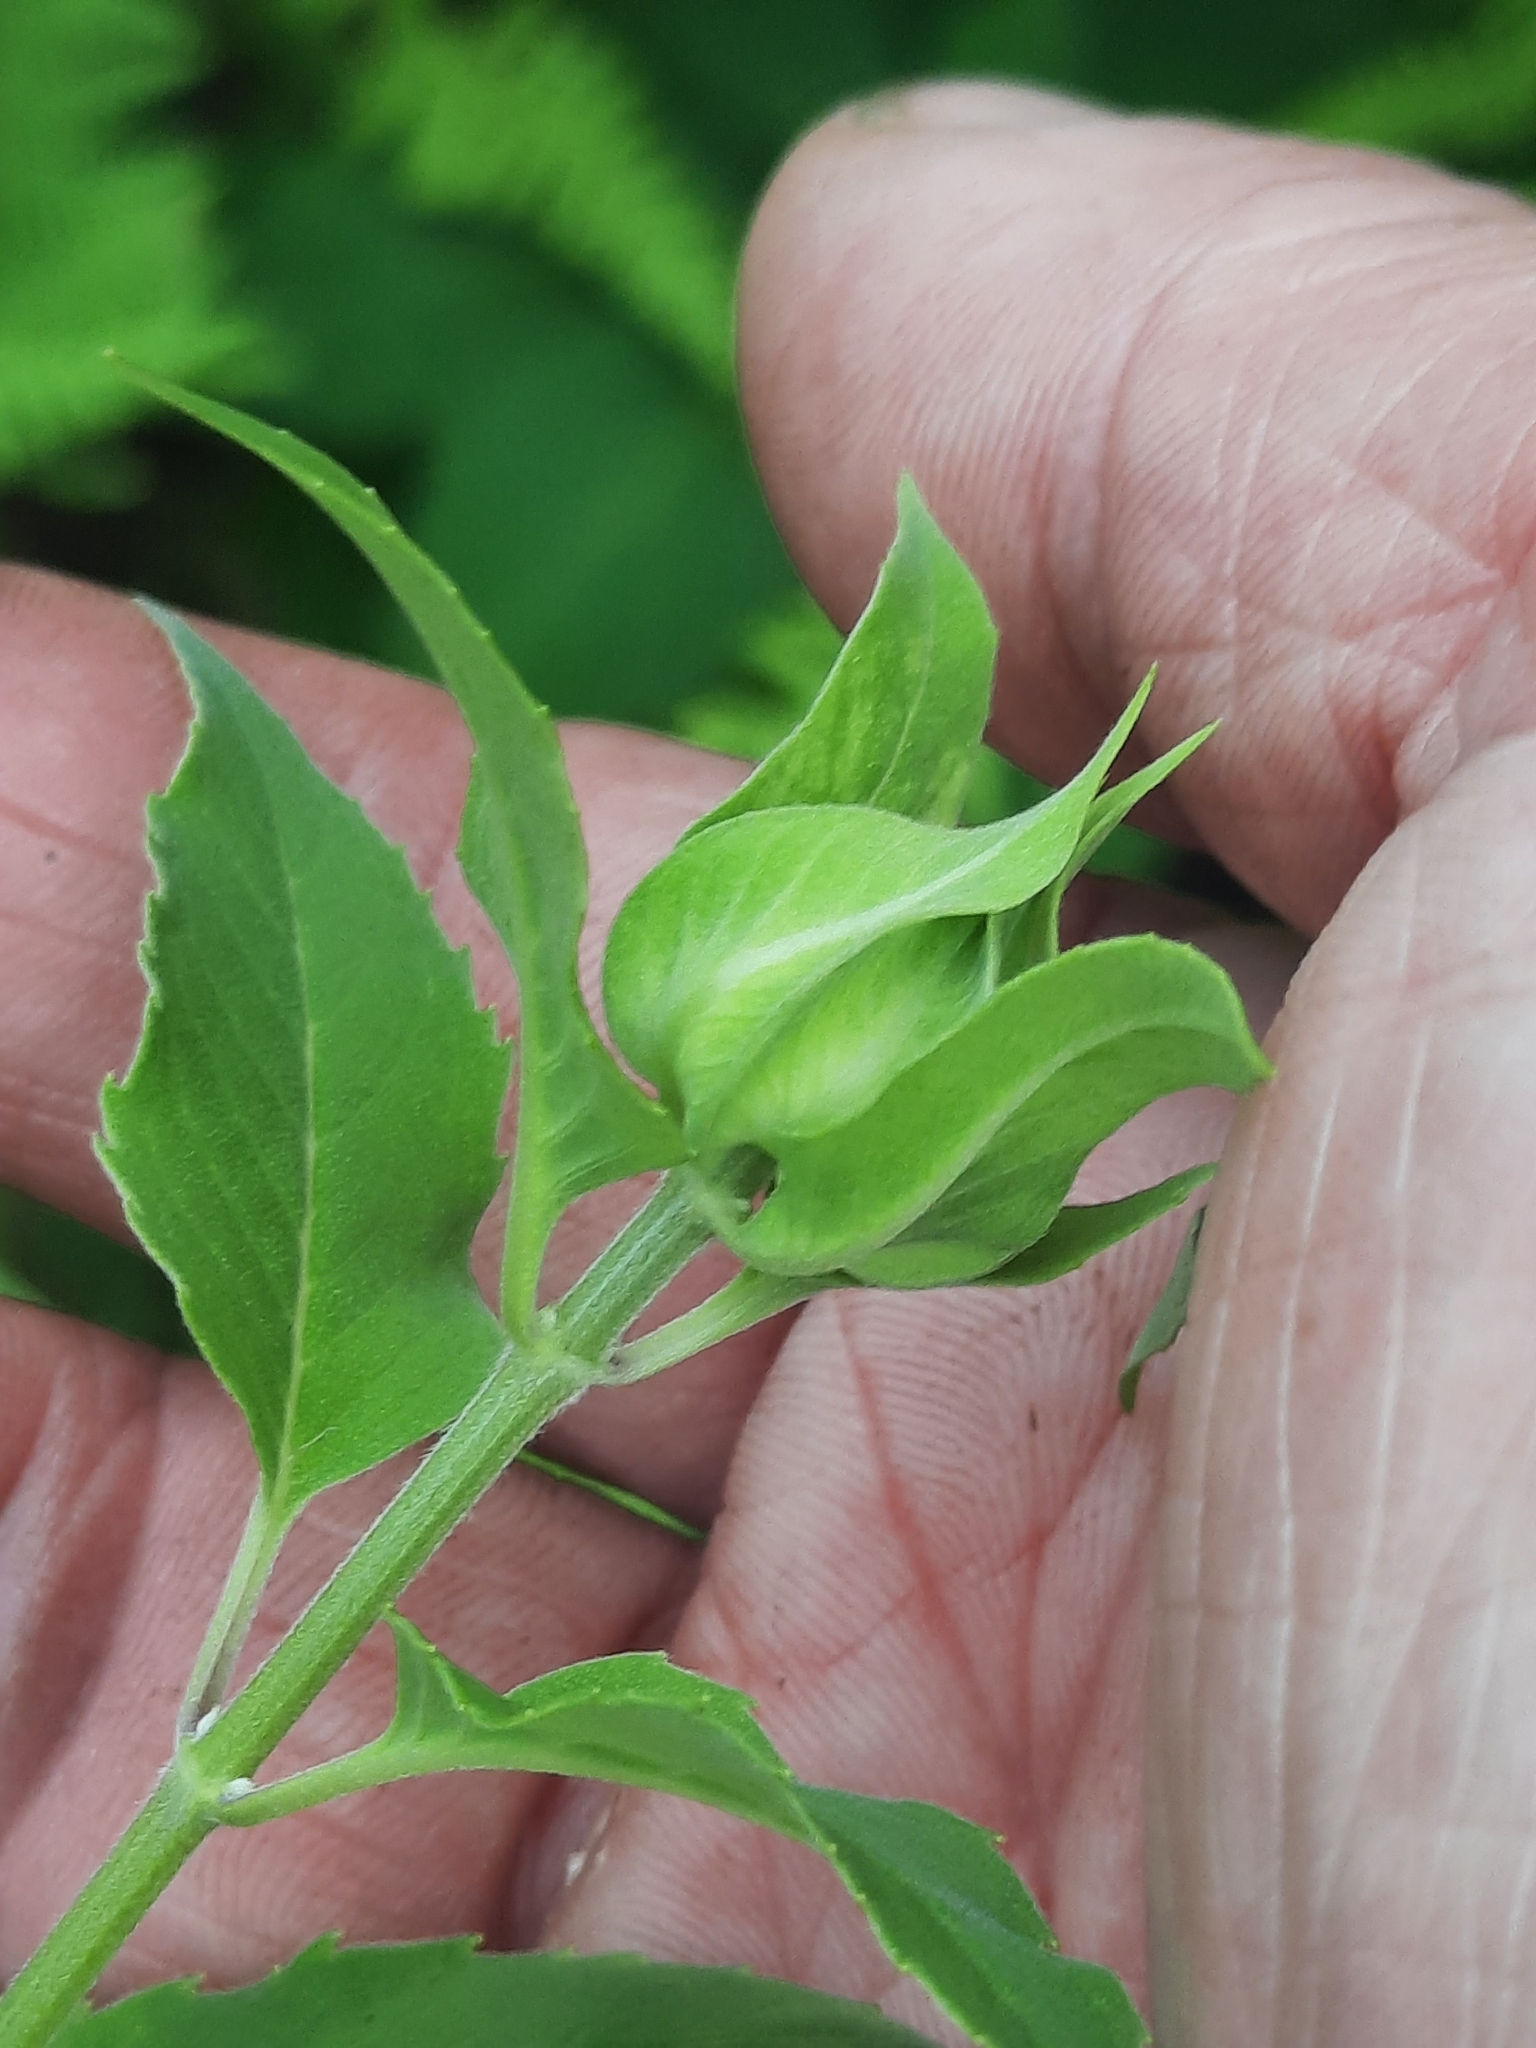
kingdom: Plantae
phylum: Tracheophyta
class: Magnoliopsida
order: Lamiales
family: Lamiaceae
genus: Monarda
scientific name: Monarda fistulosa
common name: Purple beebalm
